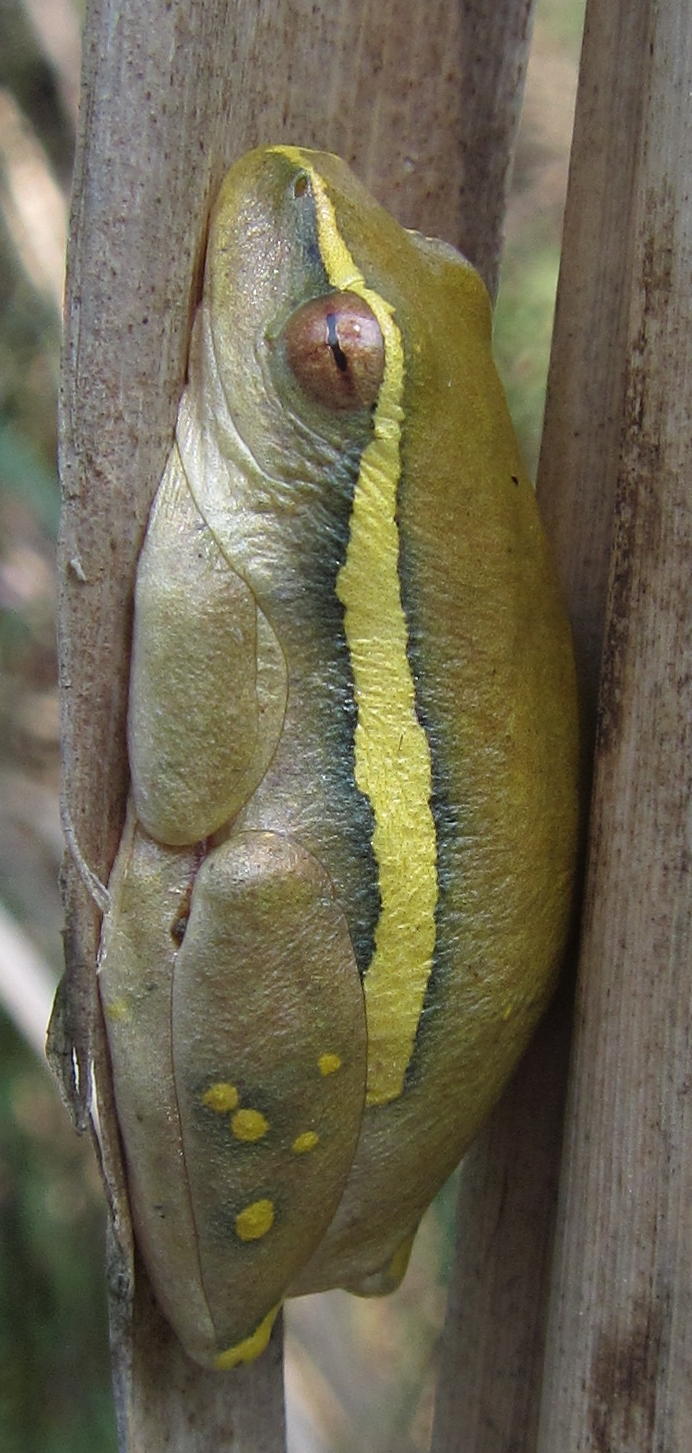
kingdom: Animalia
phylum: Chordata
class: Amphibia
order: Anura
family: Hyperoliidae
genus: Hyperolius
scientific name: Hyperolius semidiscus
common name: Yellow-striped reed frog
